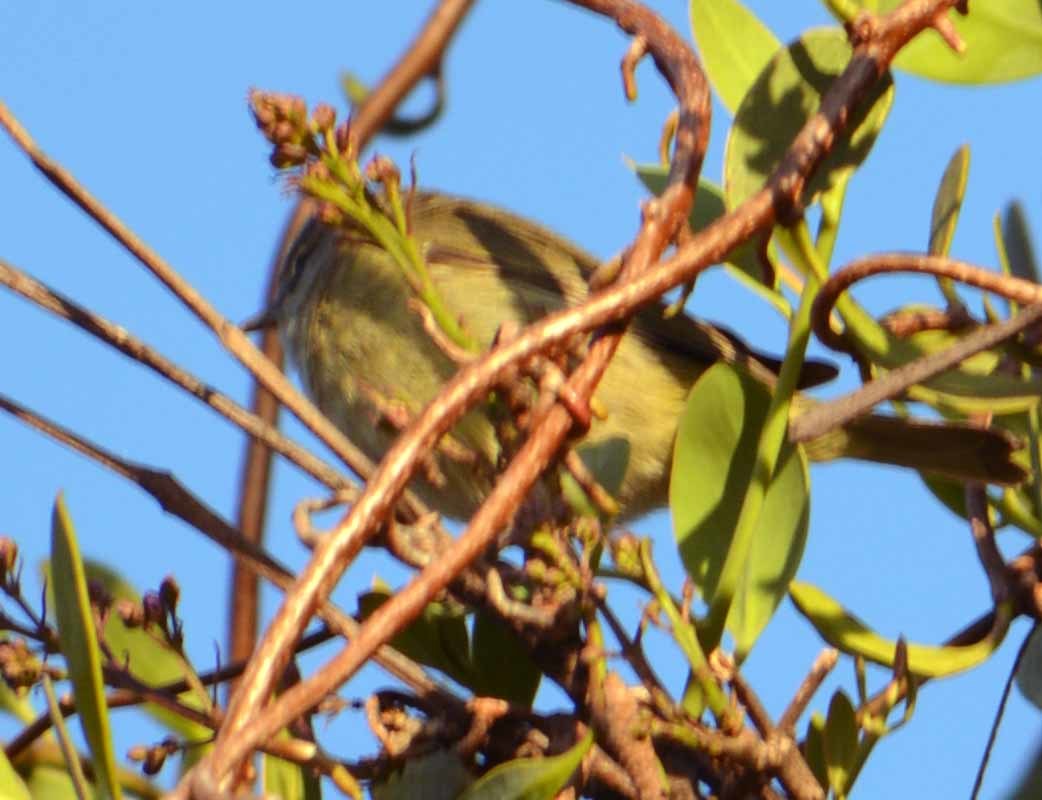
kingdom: Animalia
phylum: Chordata
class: Aves
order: Passeriformes
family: Parulidae
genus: Leiothlypis
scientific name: Leiothlypis celata
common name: Orange-crowned warbler
